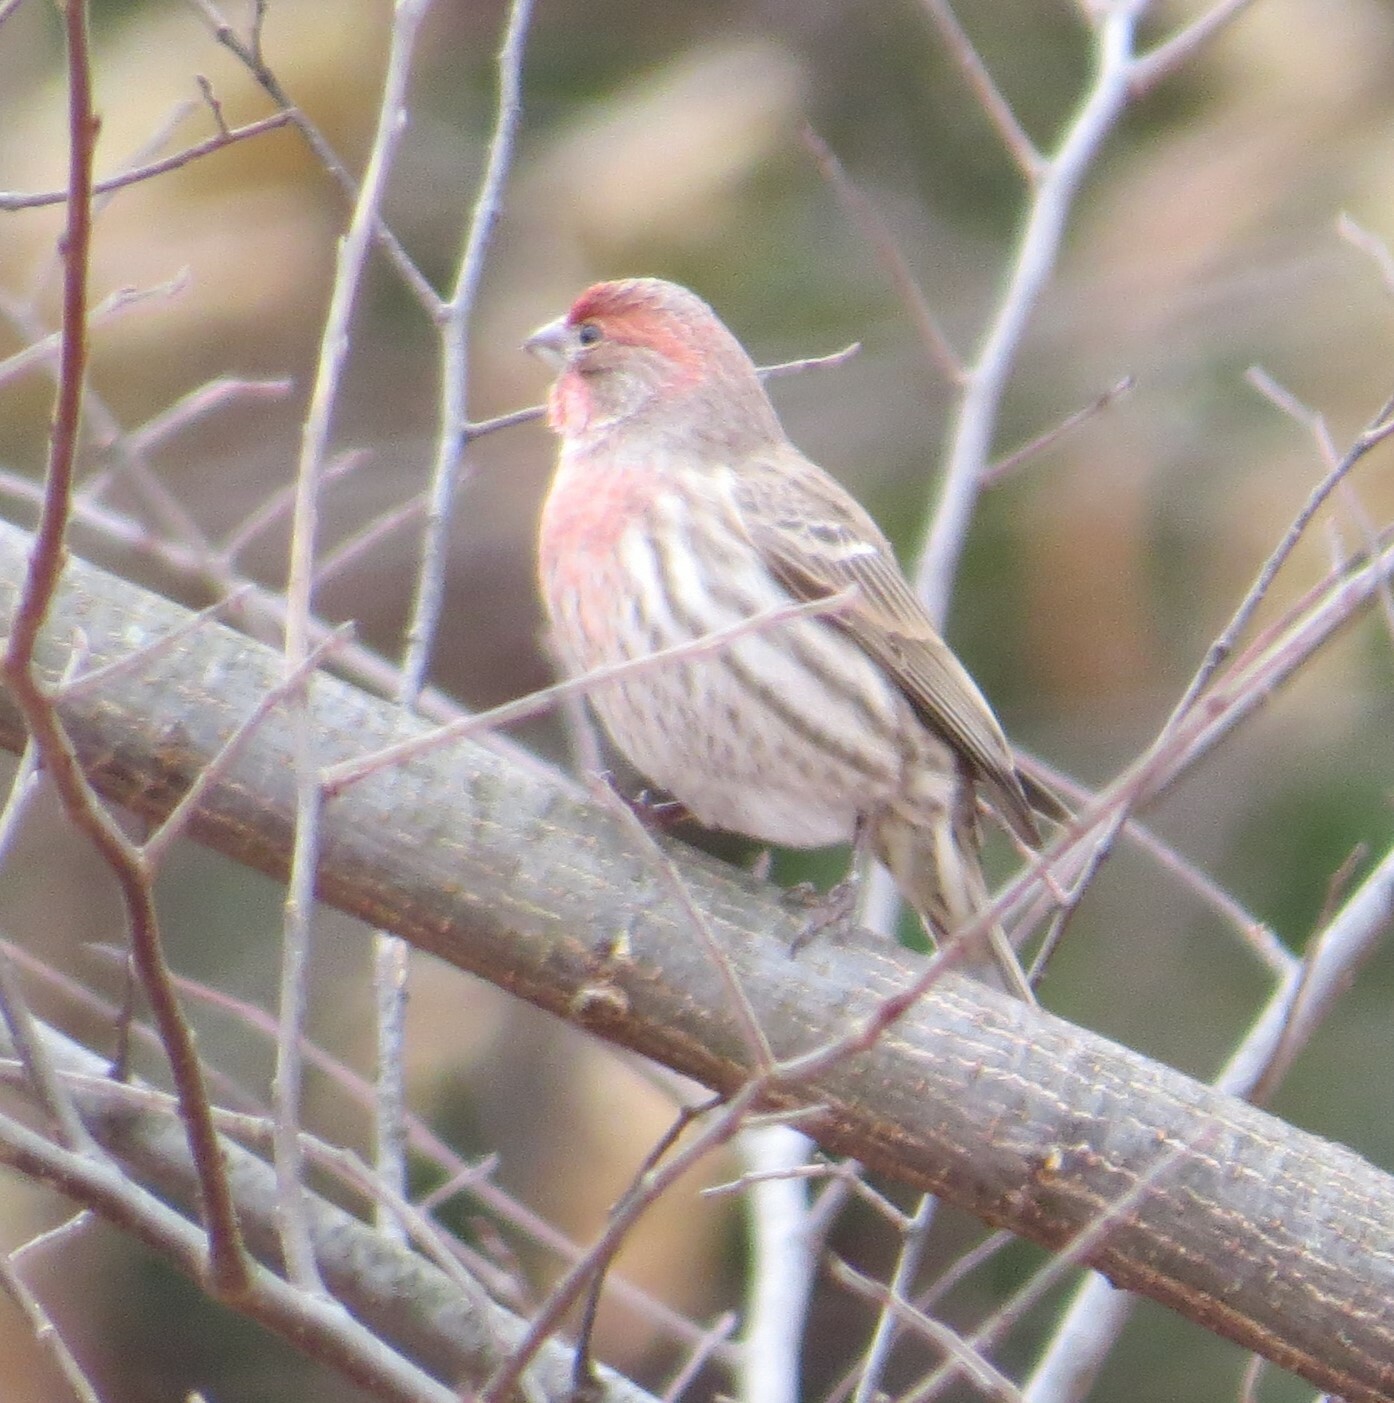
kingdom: Animalia
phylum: Chordata
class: Aves
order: Passeriformes
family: Fringillidae
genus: Haemorhous
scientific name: Haemorhous mexicanus
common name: House finch
